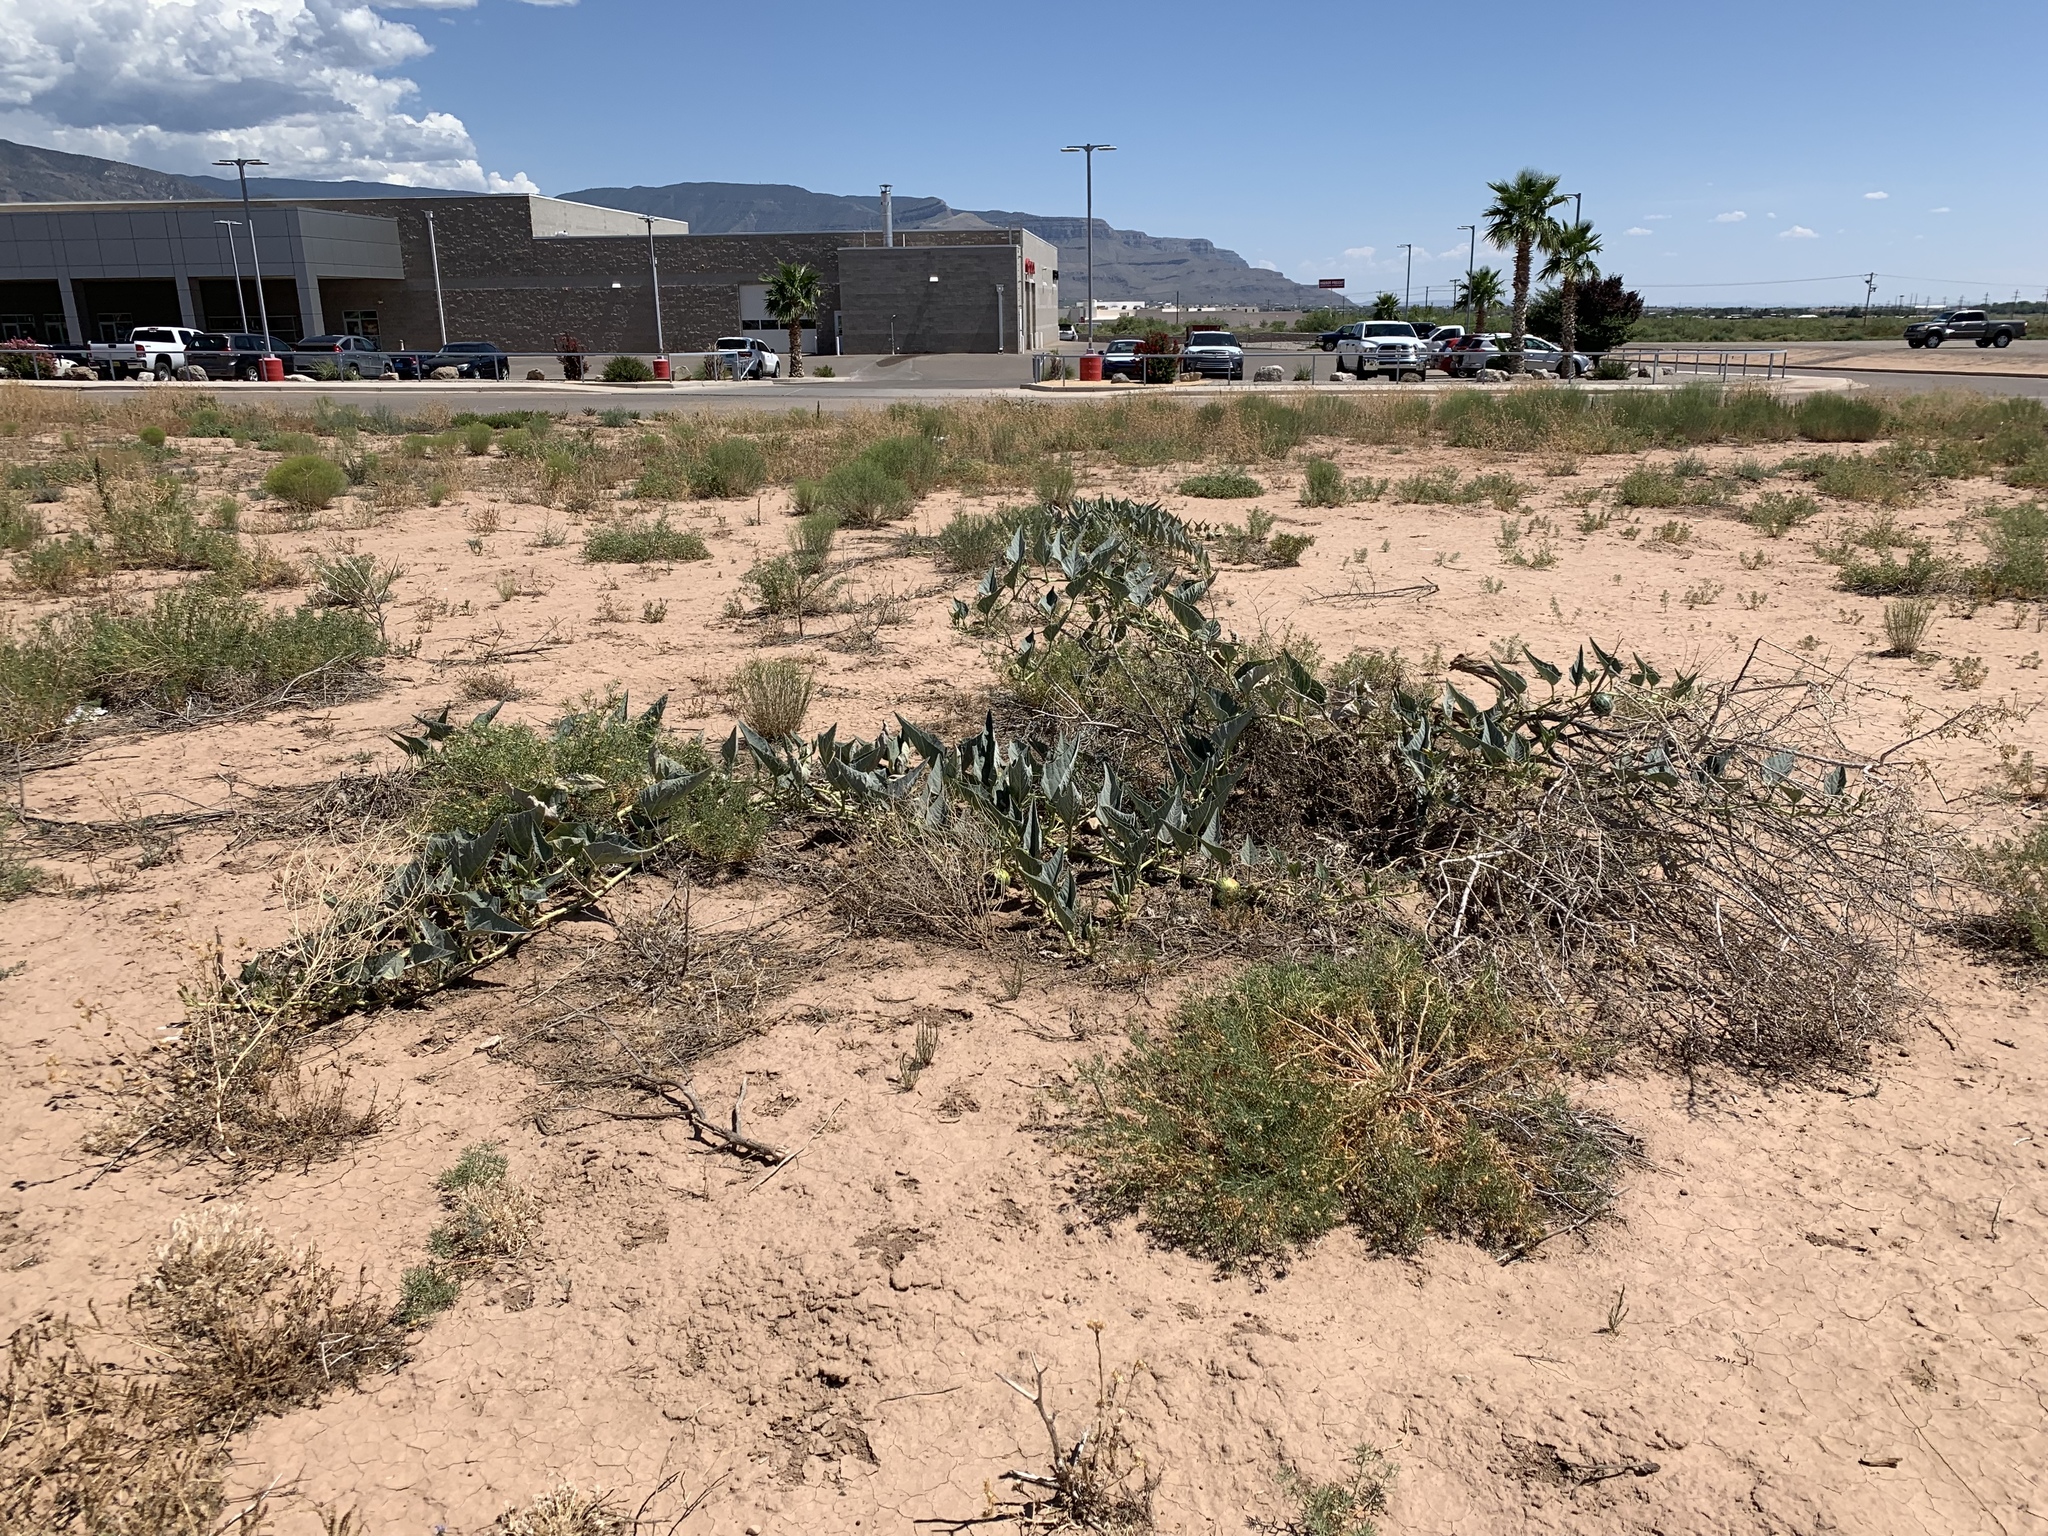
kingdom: Plantae
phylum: Tracheophyta
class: Magnoliopsida
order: Cucurbitales
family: Cucurbitaceae
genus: Cucurbita
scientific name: Cucurbita foetidissima
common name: Buffalo gourd
